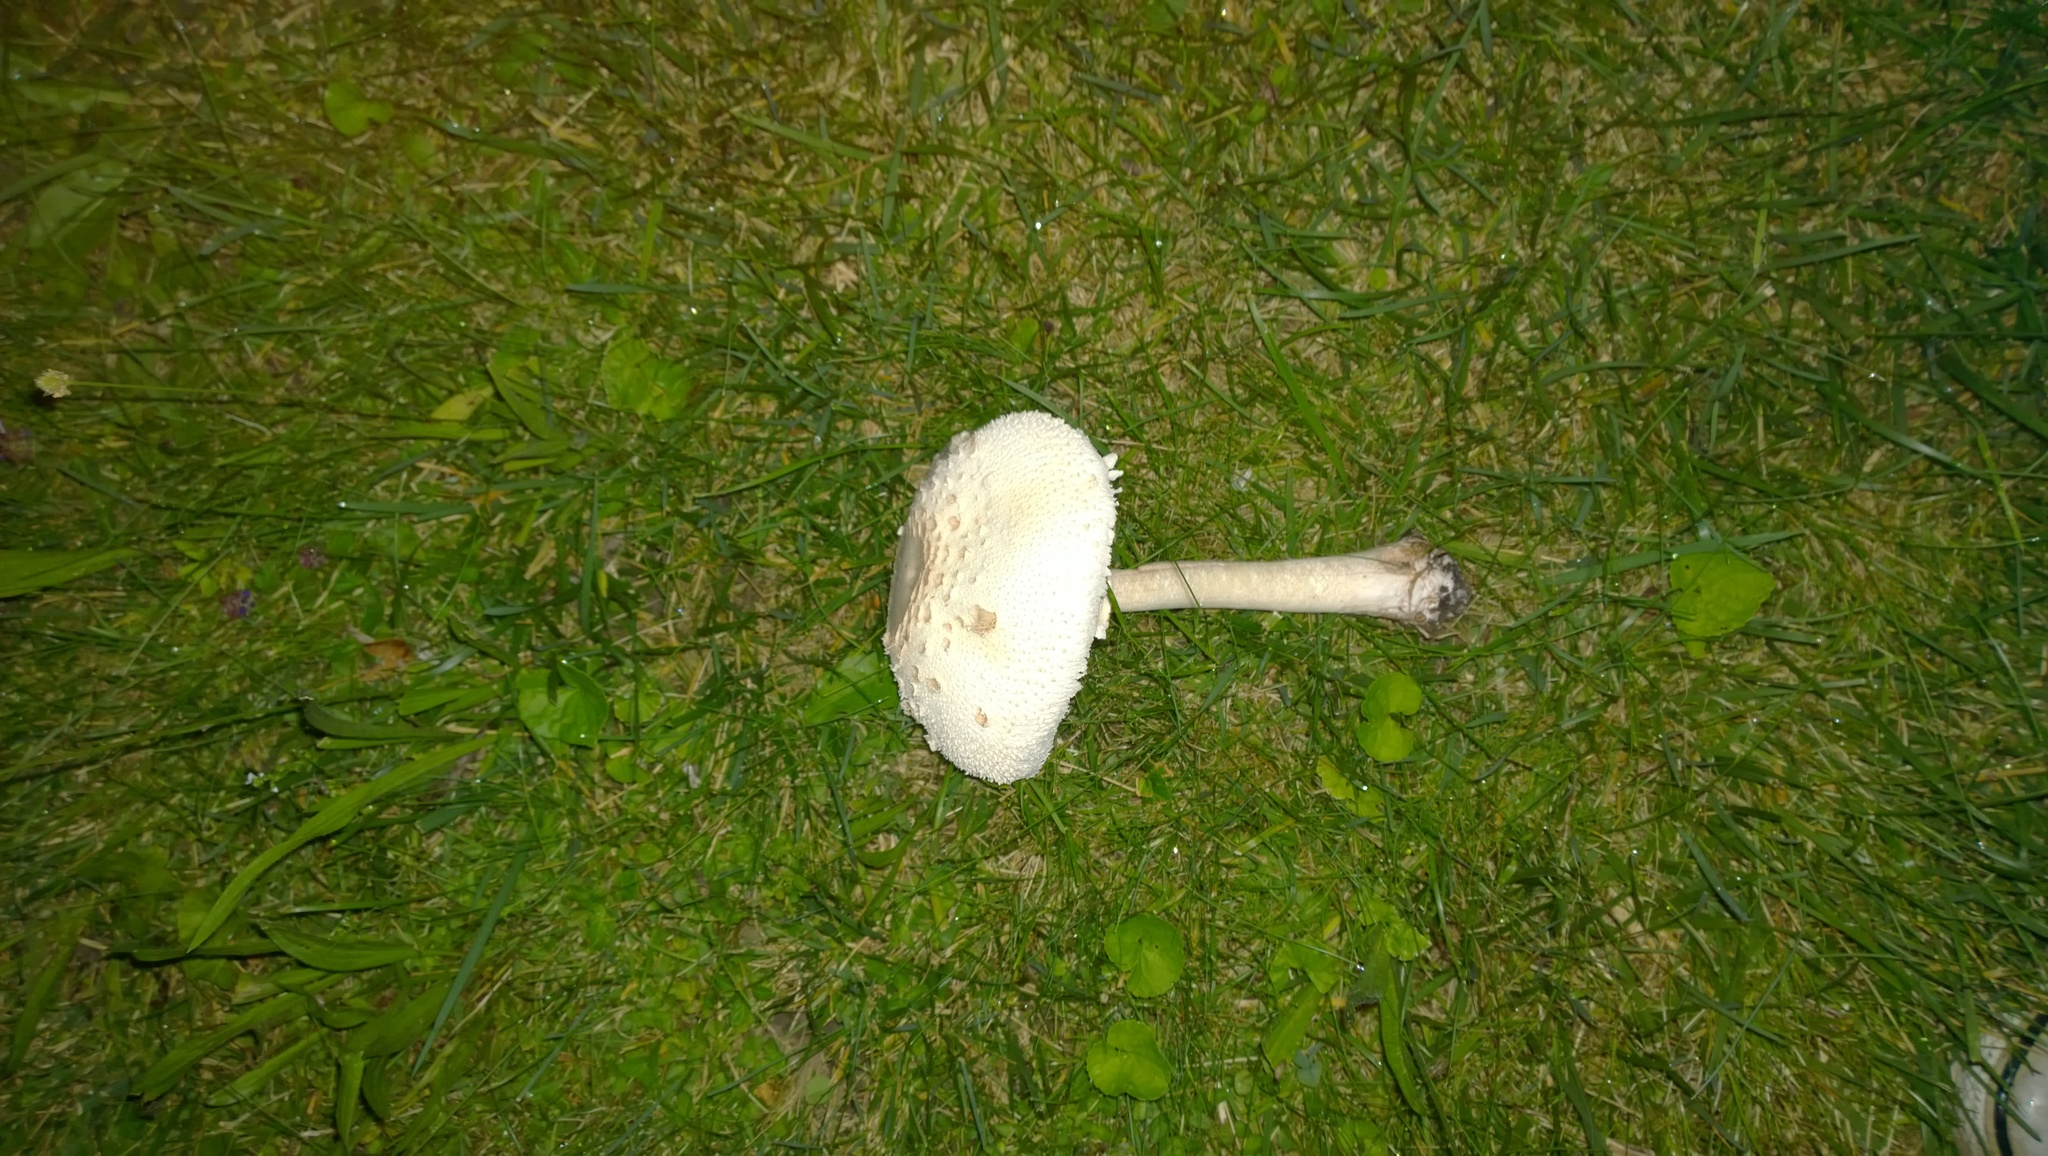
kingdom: Fungi
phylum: Basidiomycota
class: Agaricomycetes
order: Agaricales
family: Agaricaceae
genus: Chlorophyllum
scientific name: Chlorophyllum molybdites
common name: False parasol
